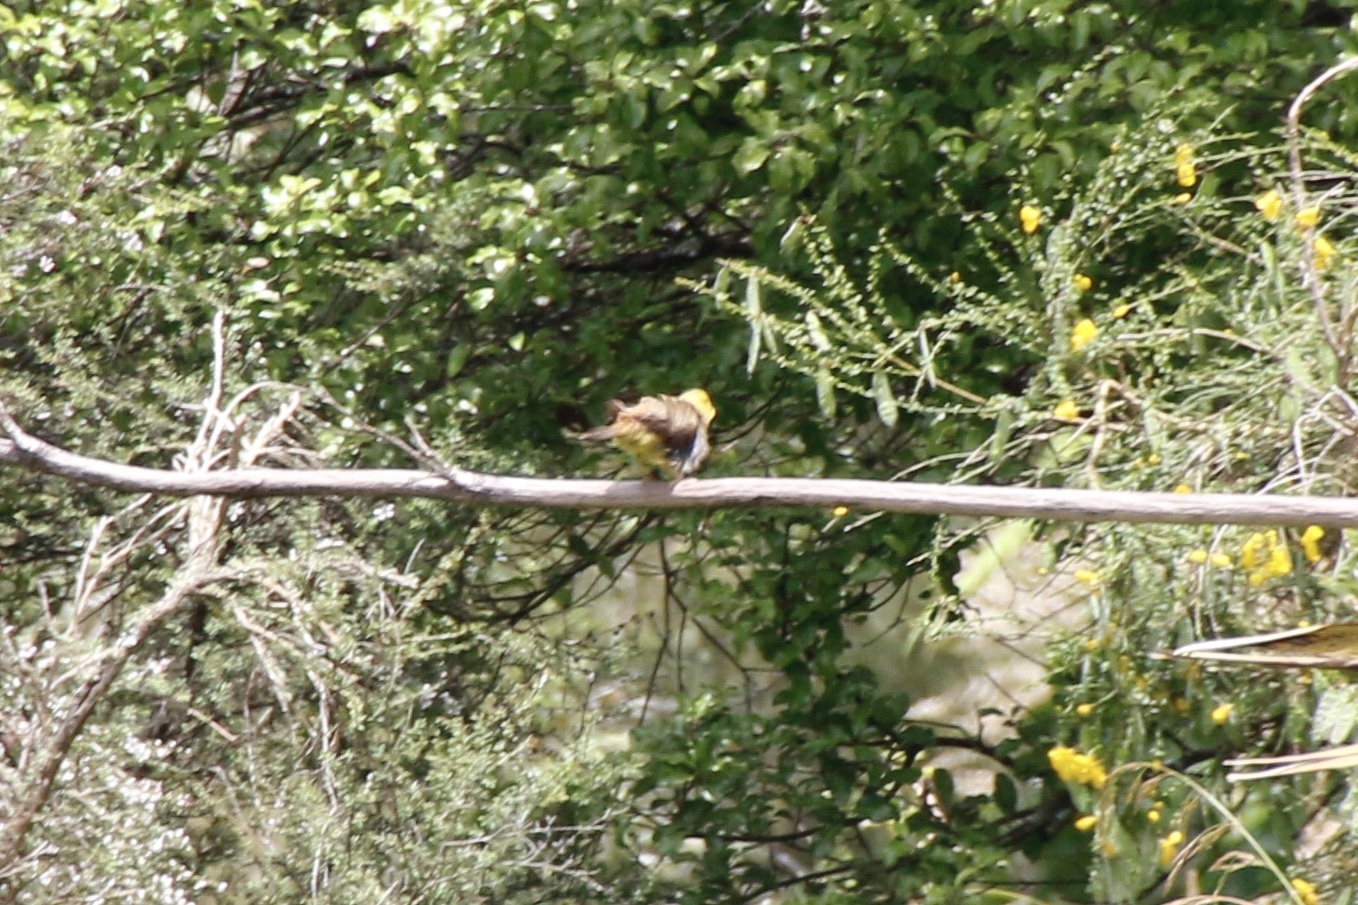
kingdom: Animalia
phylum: Chordata
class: Aves
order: Passeriformes
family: Emberizidae
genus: Emberiza
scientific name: Emberiza citrinella
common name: Yellowhammer
